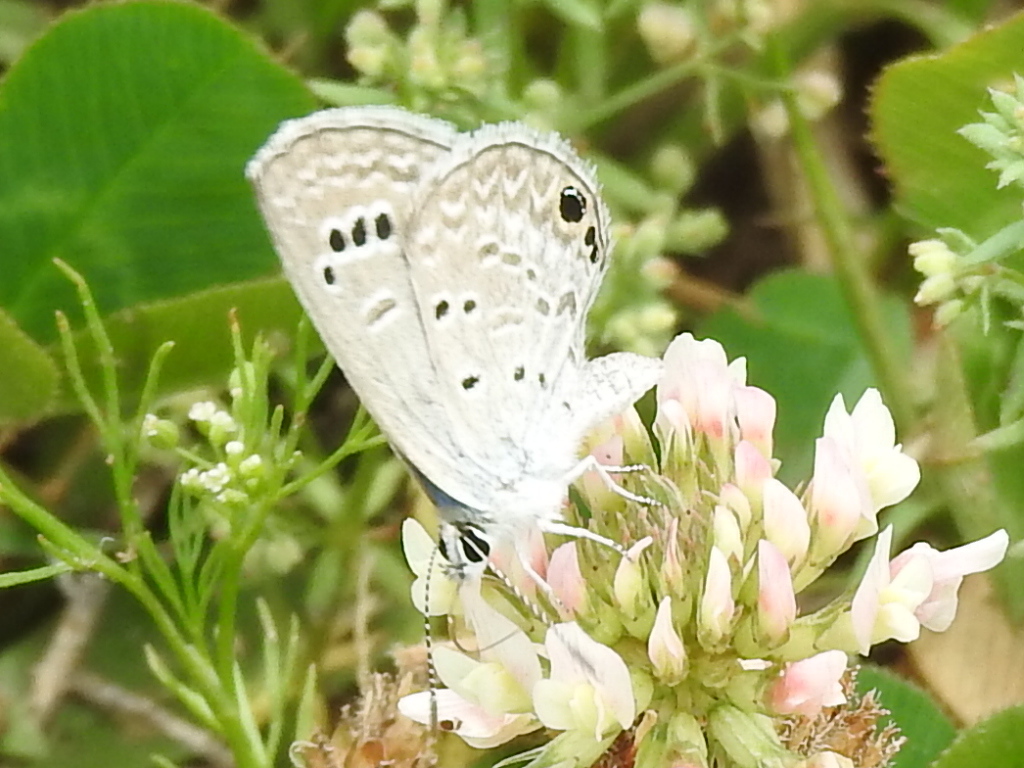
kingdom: Animalia
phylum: Arthropoda
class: Insecta
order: Lepidoptera
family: Lycaenidae
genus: Echinargus
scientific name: Echinargus isola
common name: Reakirt's blue
